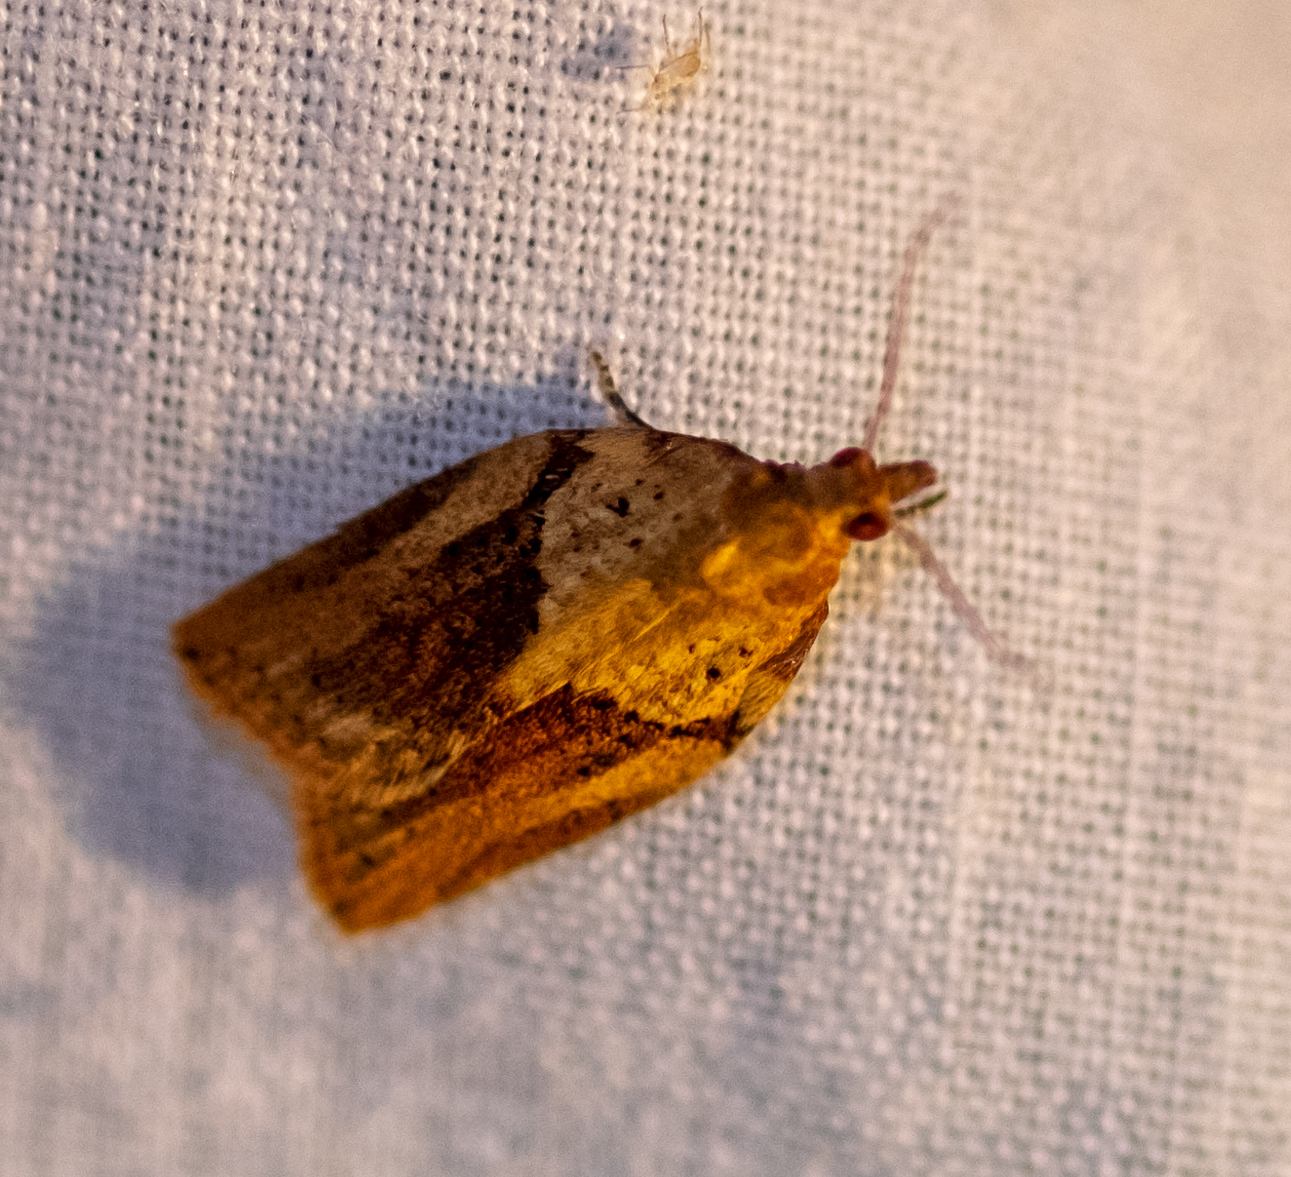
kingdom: Animalia
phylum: Arthropoda
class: Insecta
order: Lepidoptera
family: Tortricidae
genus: Epiphyas
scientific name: Epiphyas postvittana
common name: Light brown apple moth
